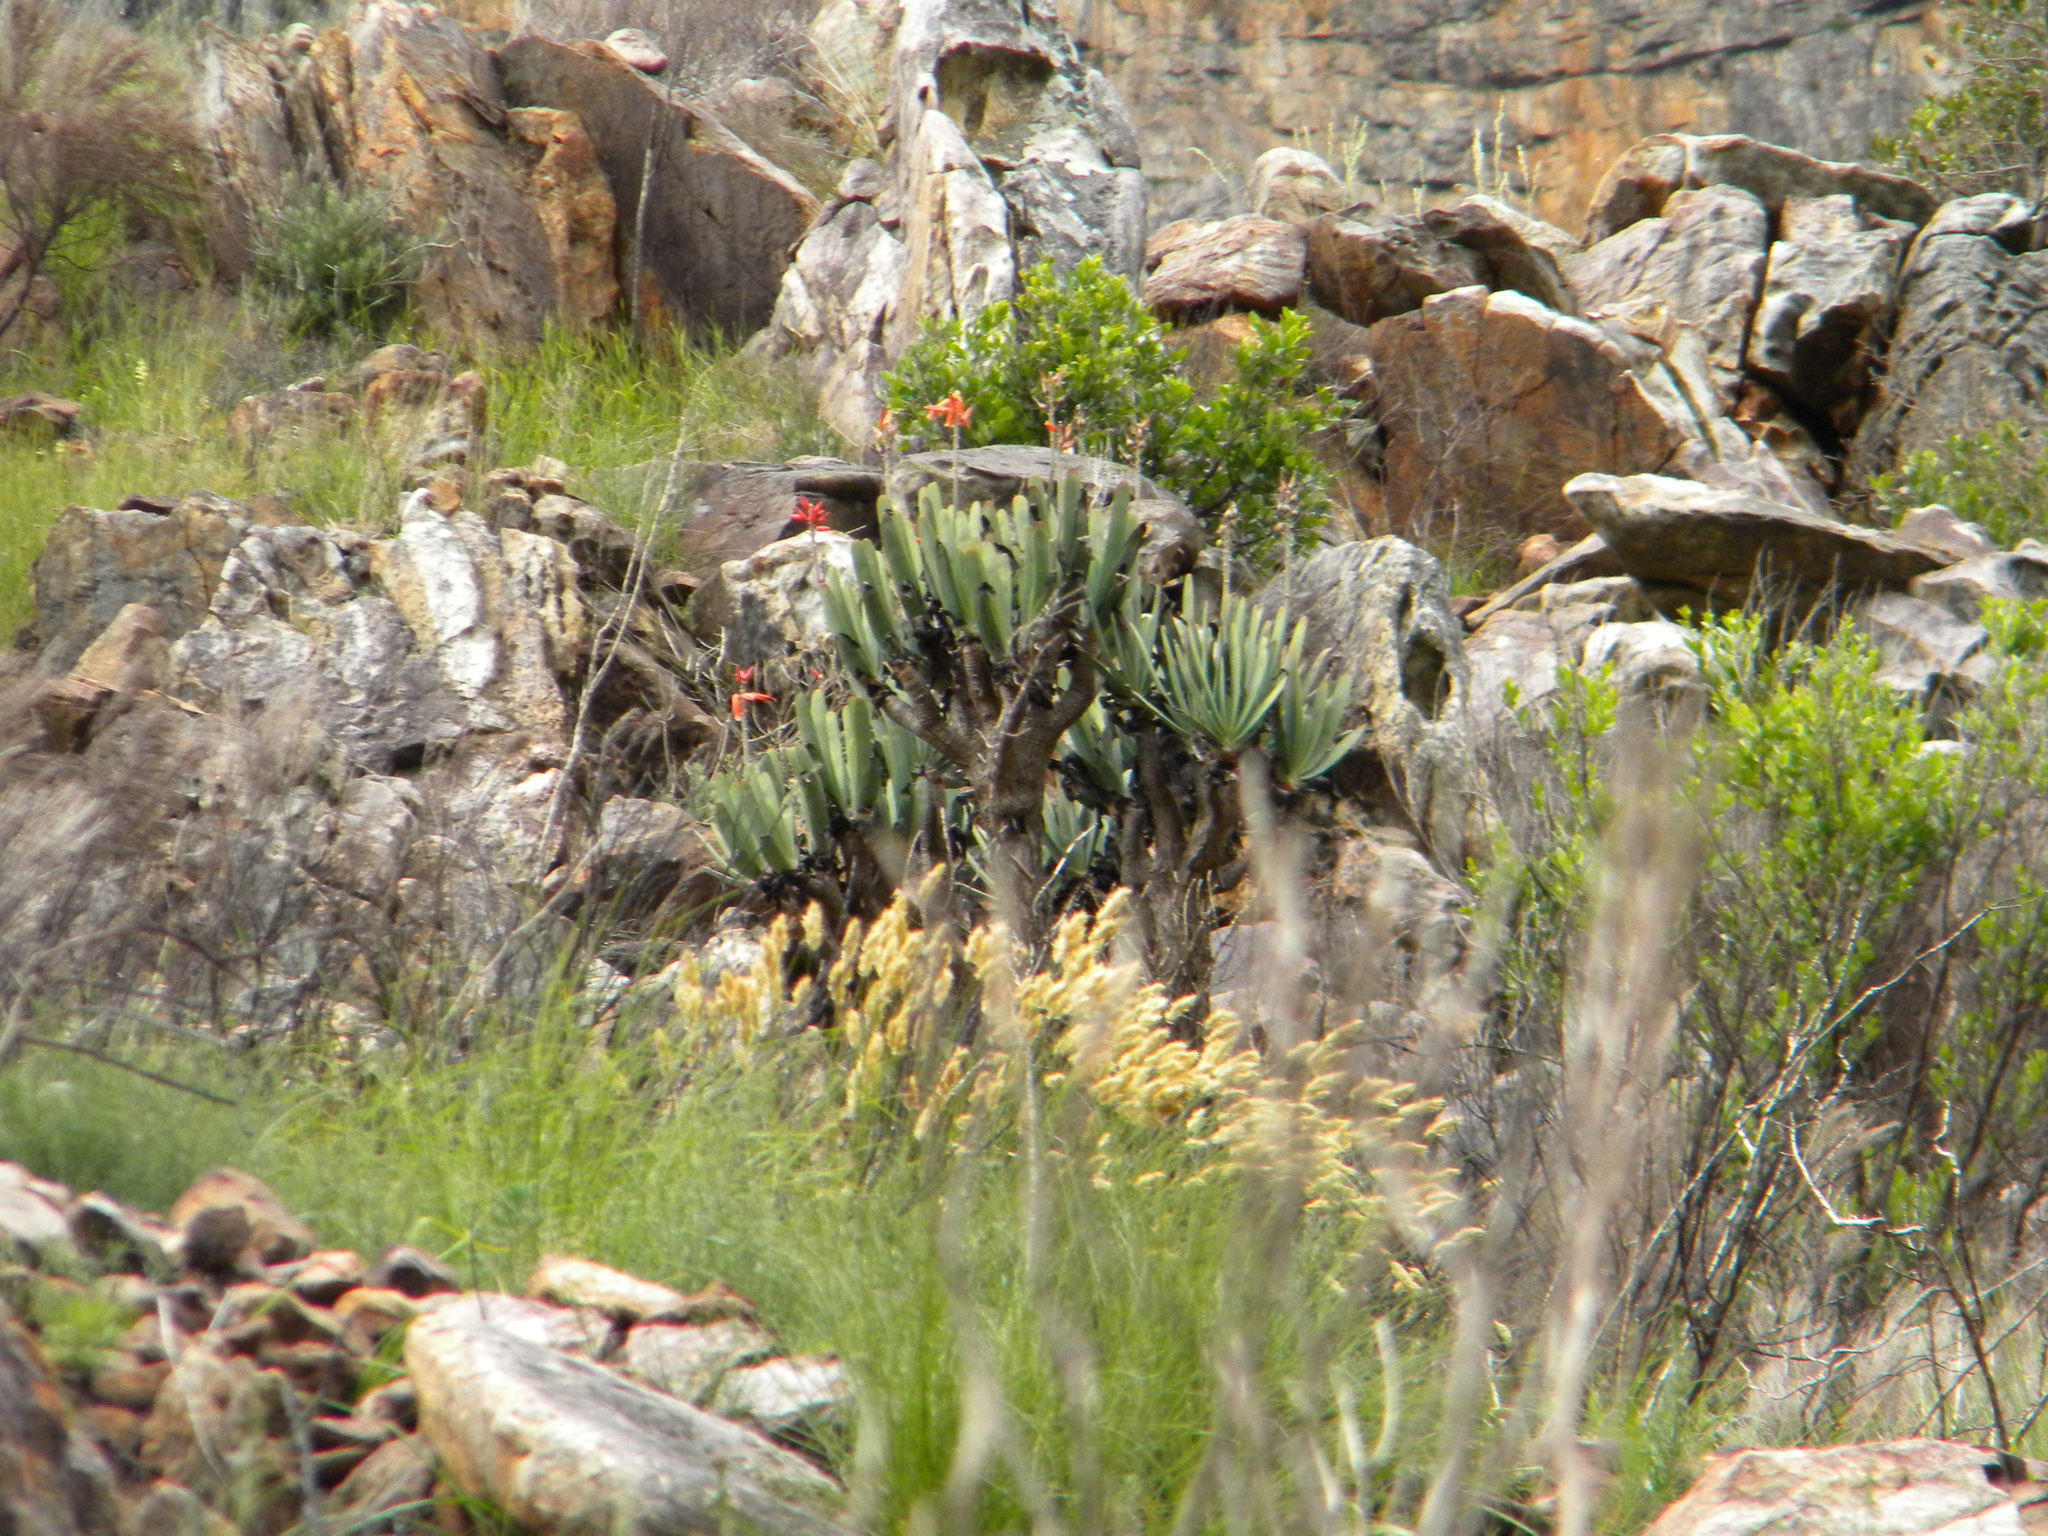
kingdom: Plantae
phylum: Tracheophyta
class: Liliopsida
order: Asparagales
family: Asphodelaceae
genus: Kumara
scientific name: Kumara plicatilis
